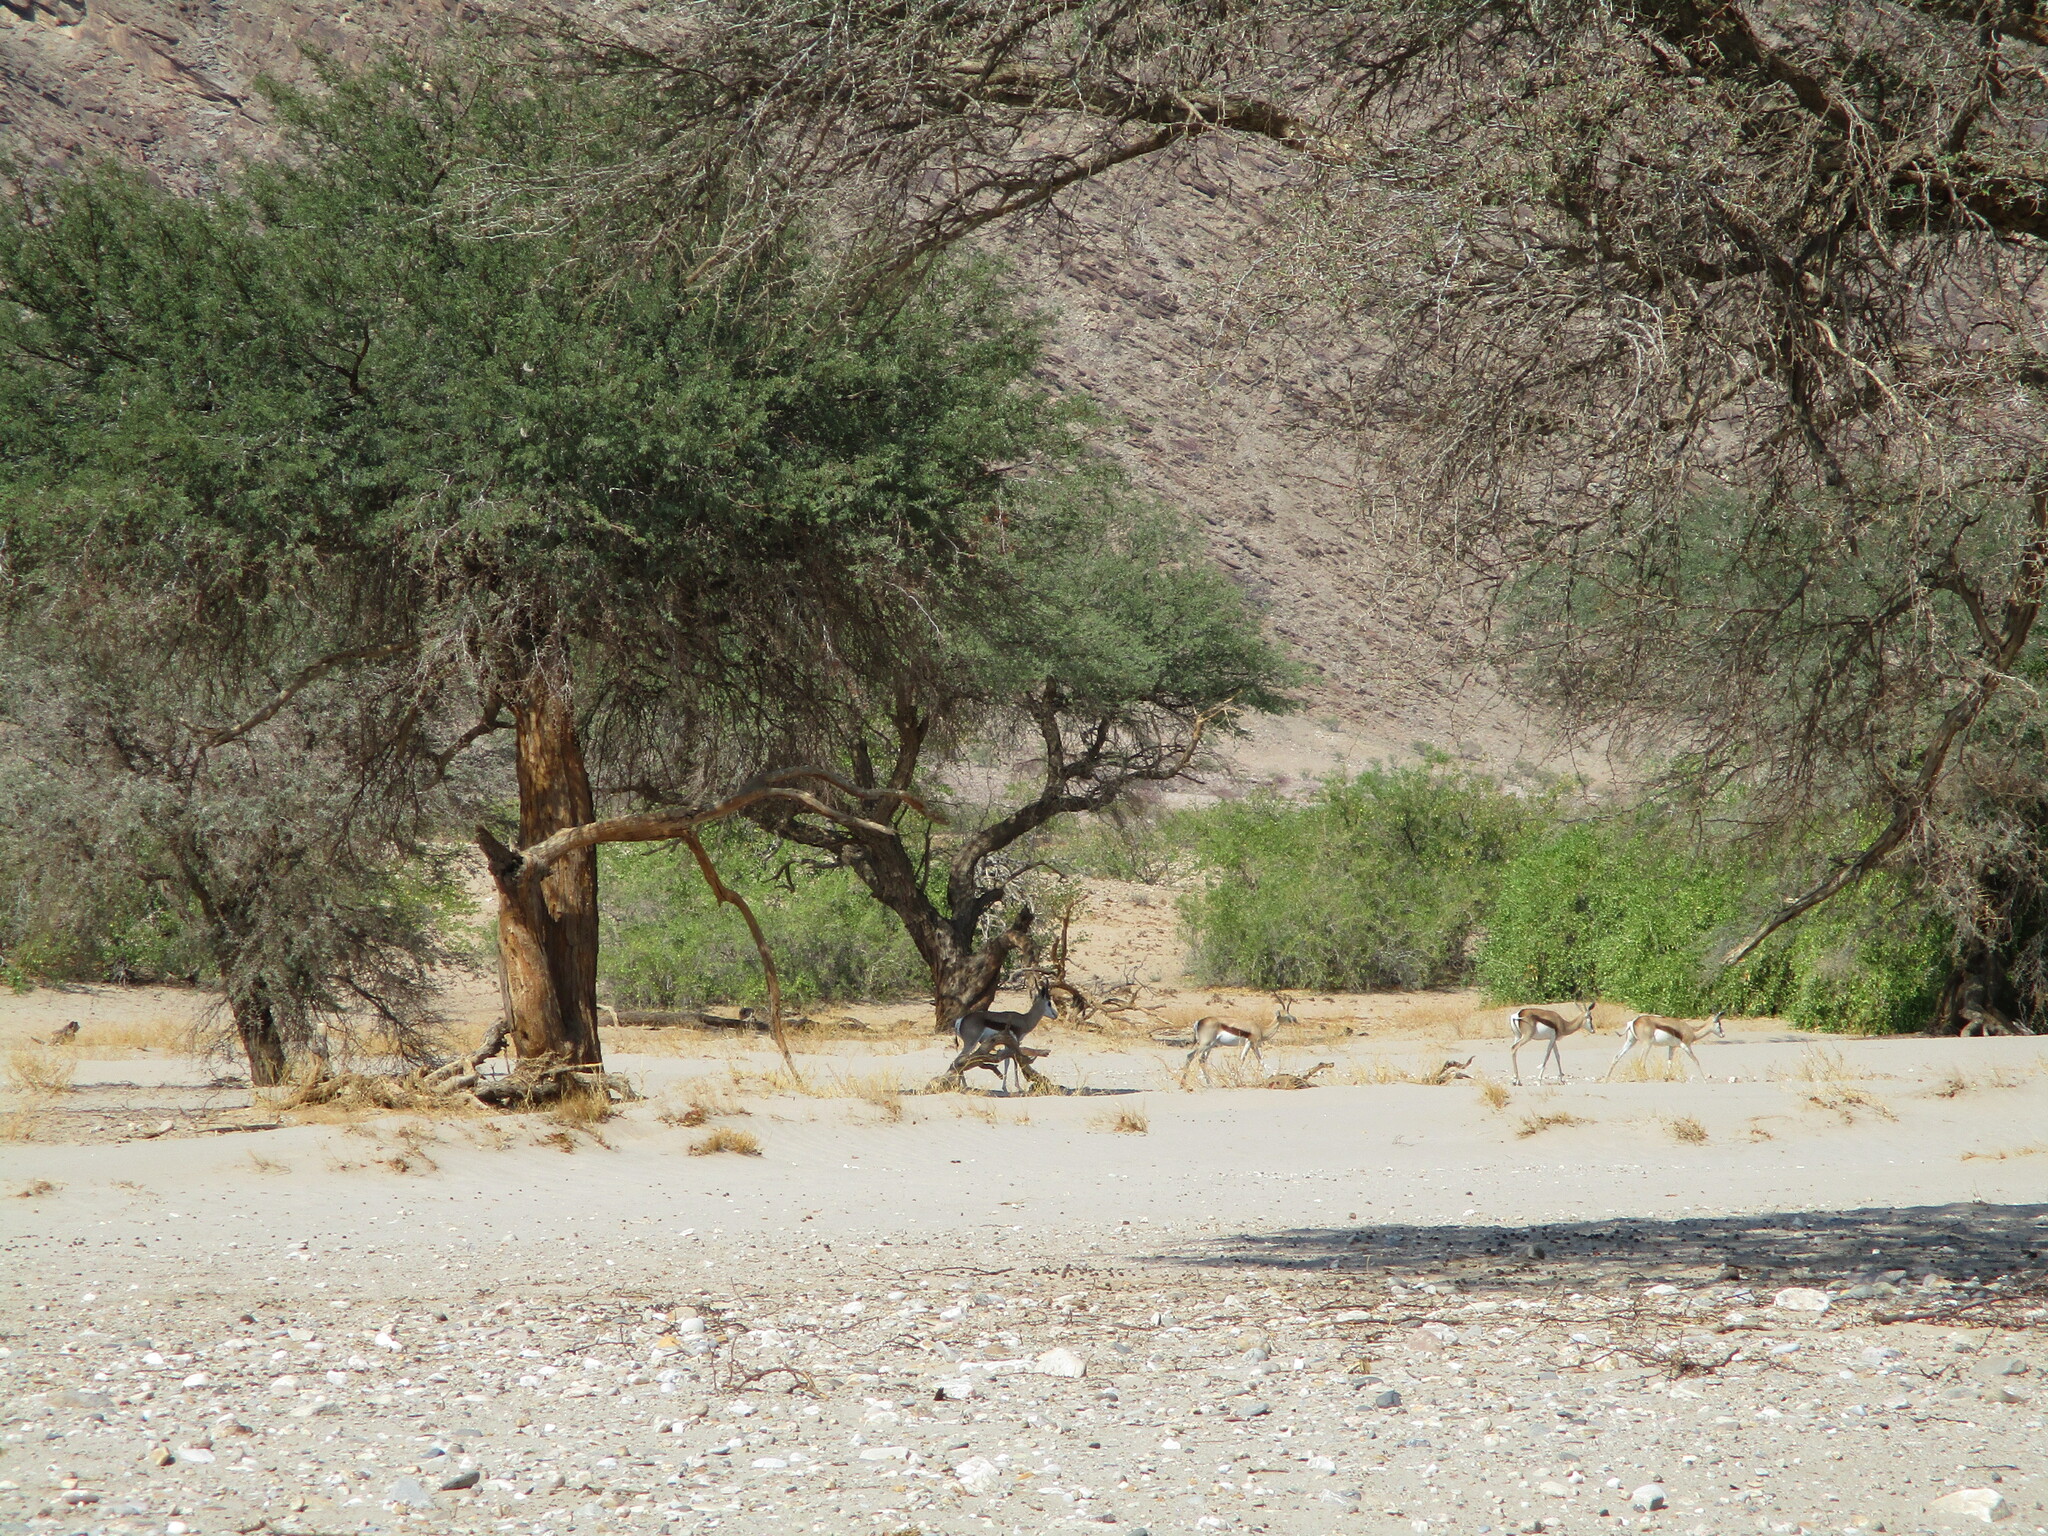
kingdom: Animalia
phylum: Chordata
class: Mammalia
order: Artiodactyla
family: Bovidae
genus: Antidorcas
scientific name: Antidorcas marsupialis
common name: Springbok
